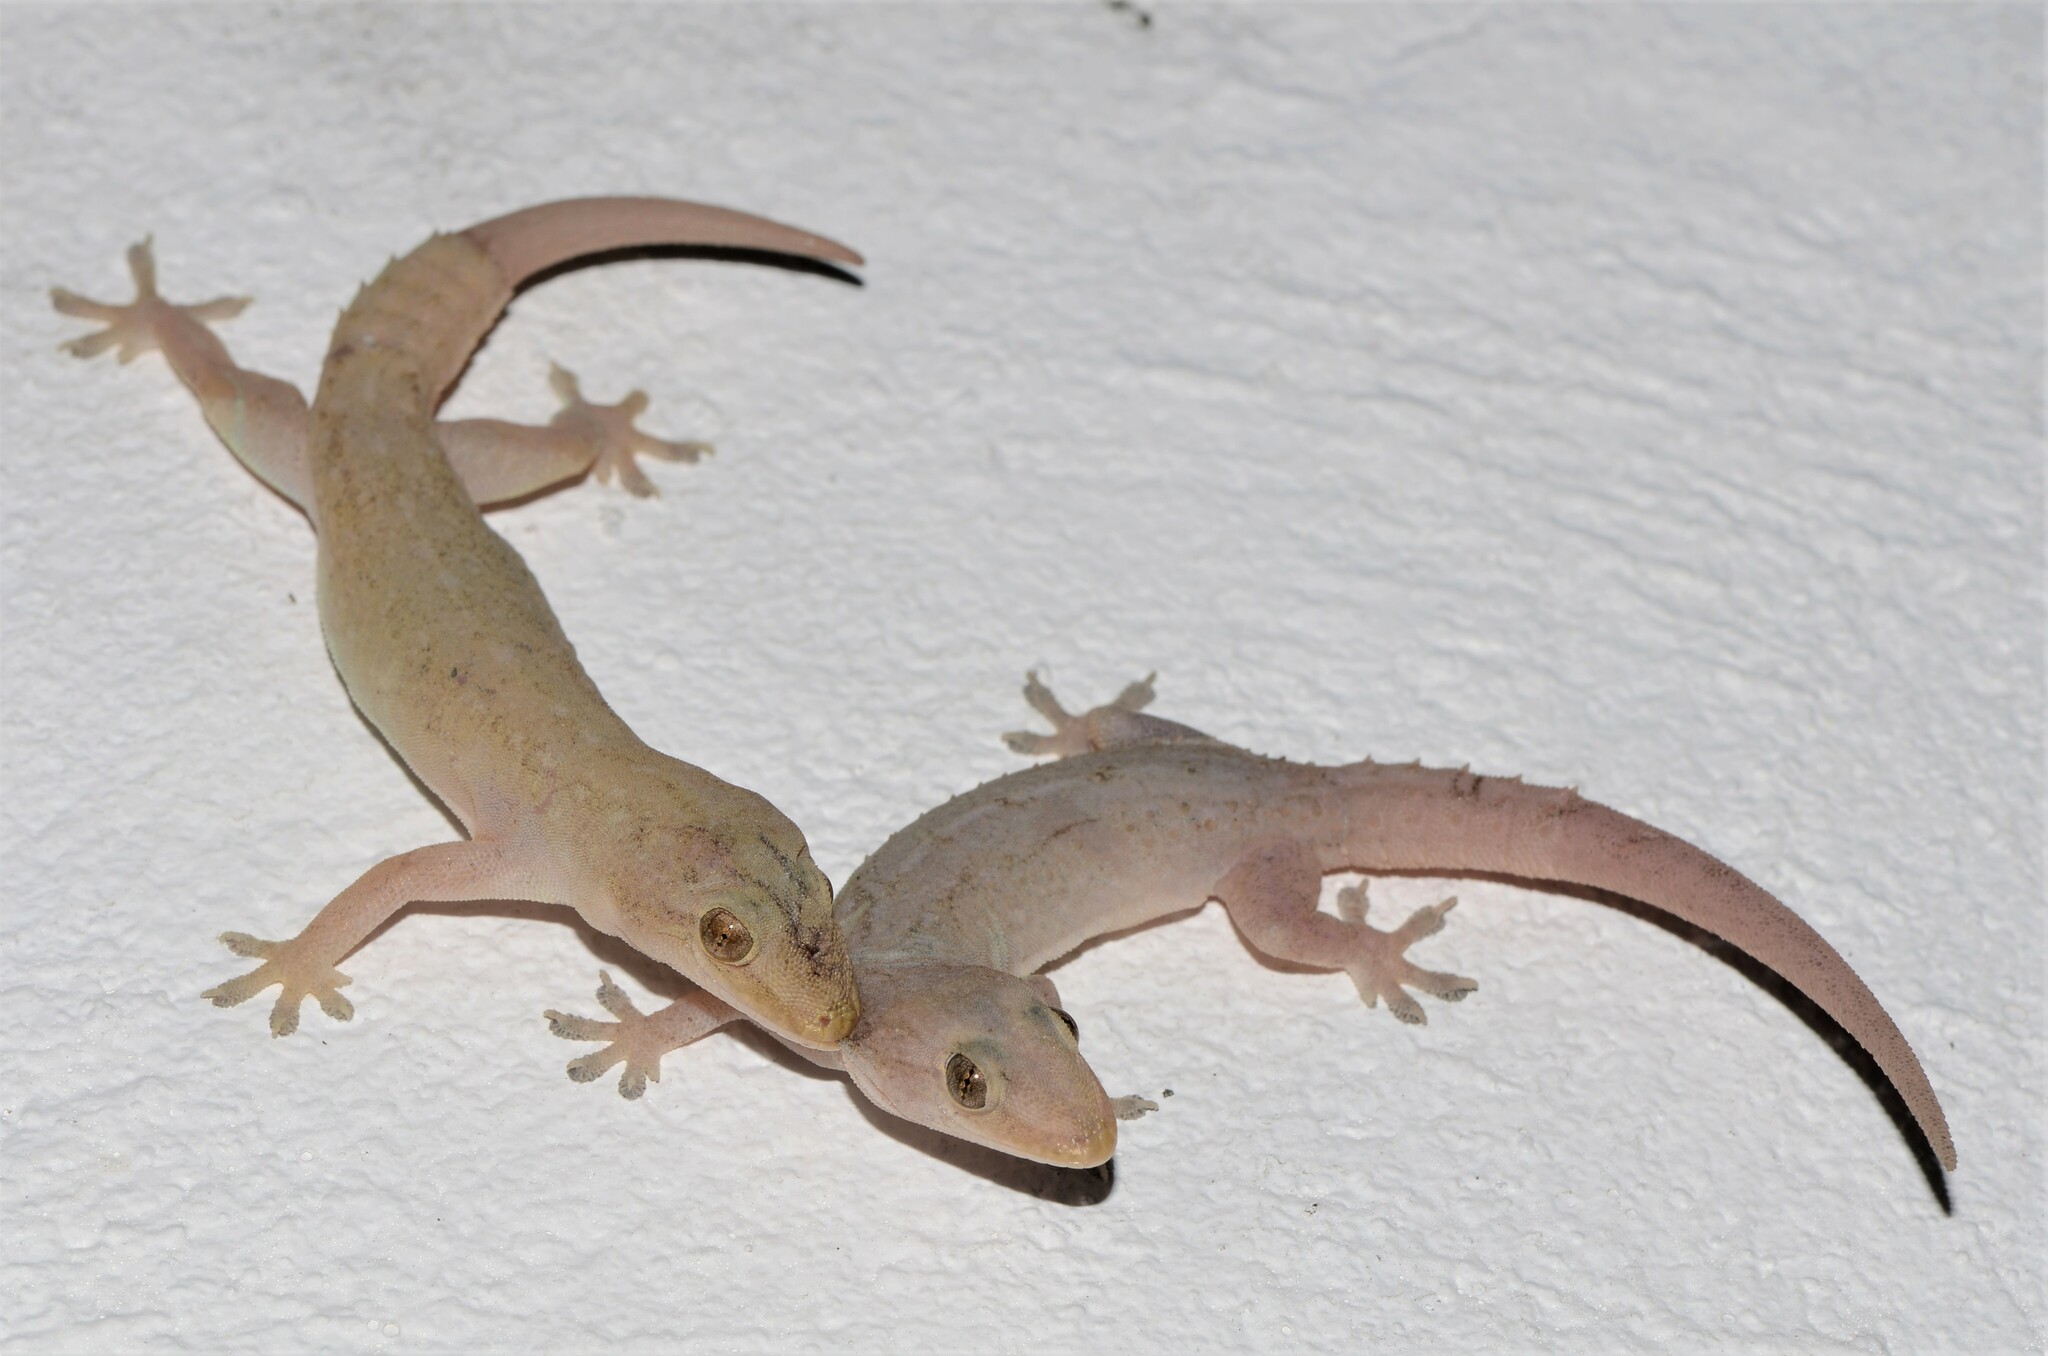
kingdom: Animalia
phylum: Chordata
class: Squamata
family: Gekkonidae
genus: Hemidactylus
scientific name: Hemidactylus frenatus
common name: Common house gecko
